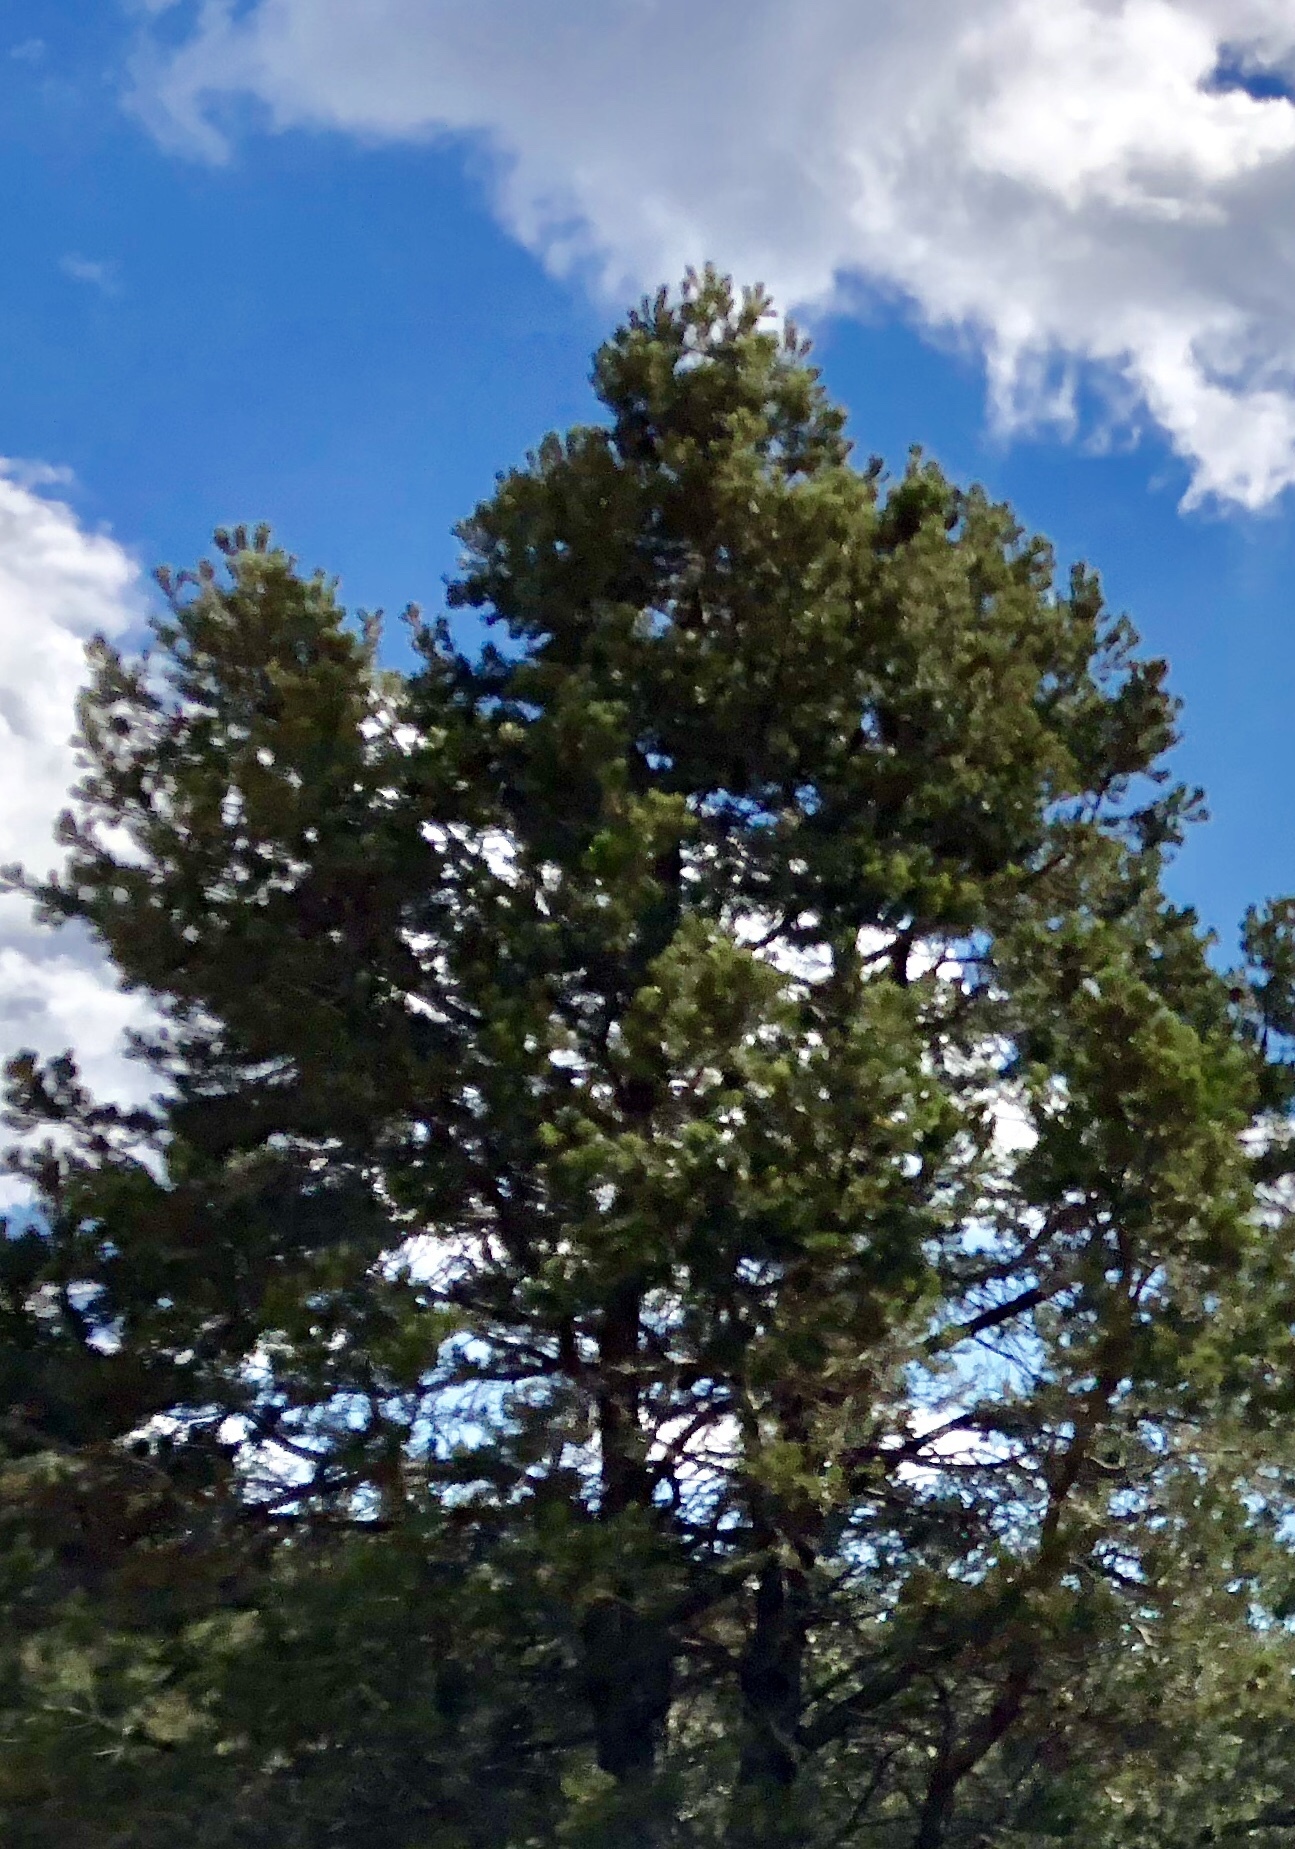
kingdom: Plantae
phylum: Tracheophyta
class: Pinopsida
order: Pinales
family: Pinaceae
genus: Pinus
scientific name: Pinus edulis
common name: Colorado pinyon
